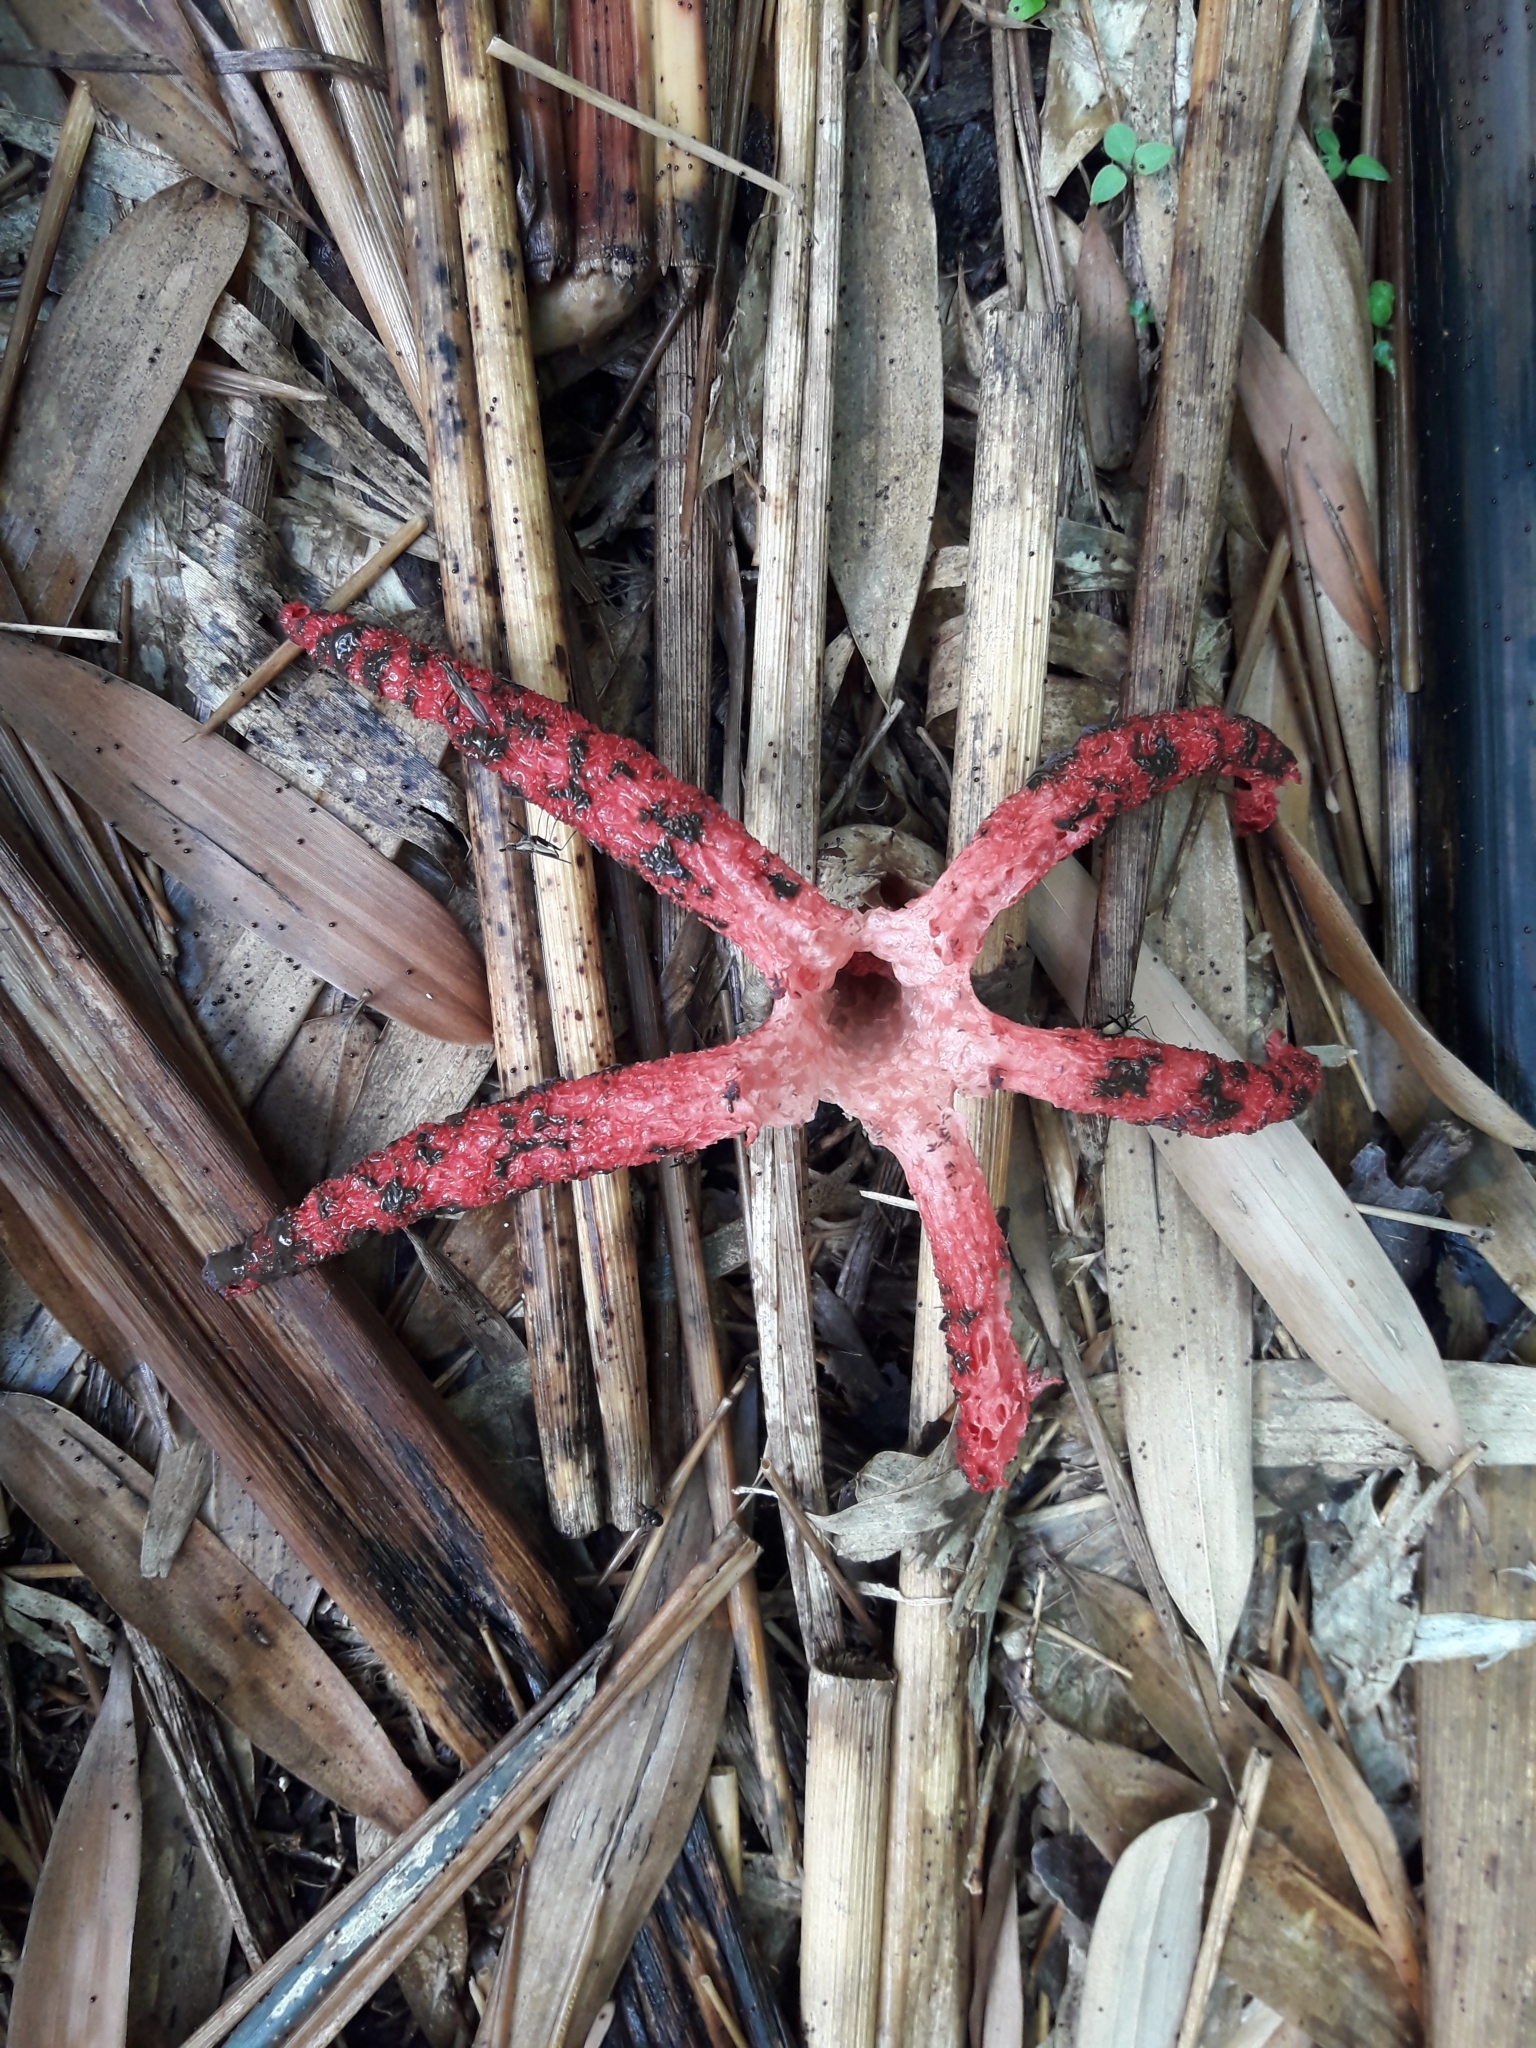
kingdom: Fungi
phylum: Basidiomycota
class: Agaricomycetes
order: Phallales
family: Phallaceae
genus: Clathrus
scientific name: Clathrus archeri
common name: Devil's fingers
